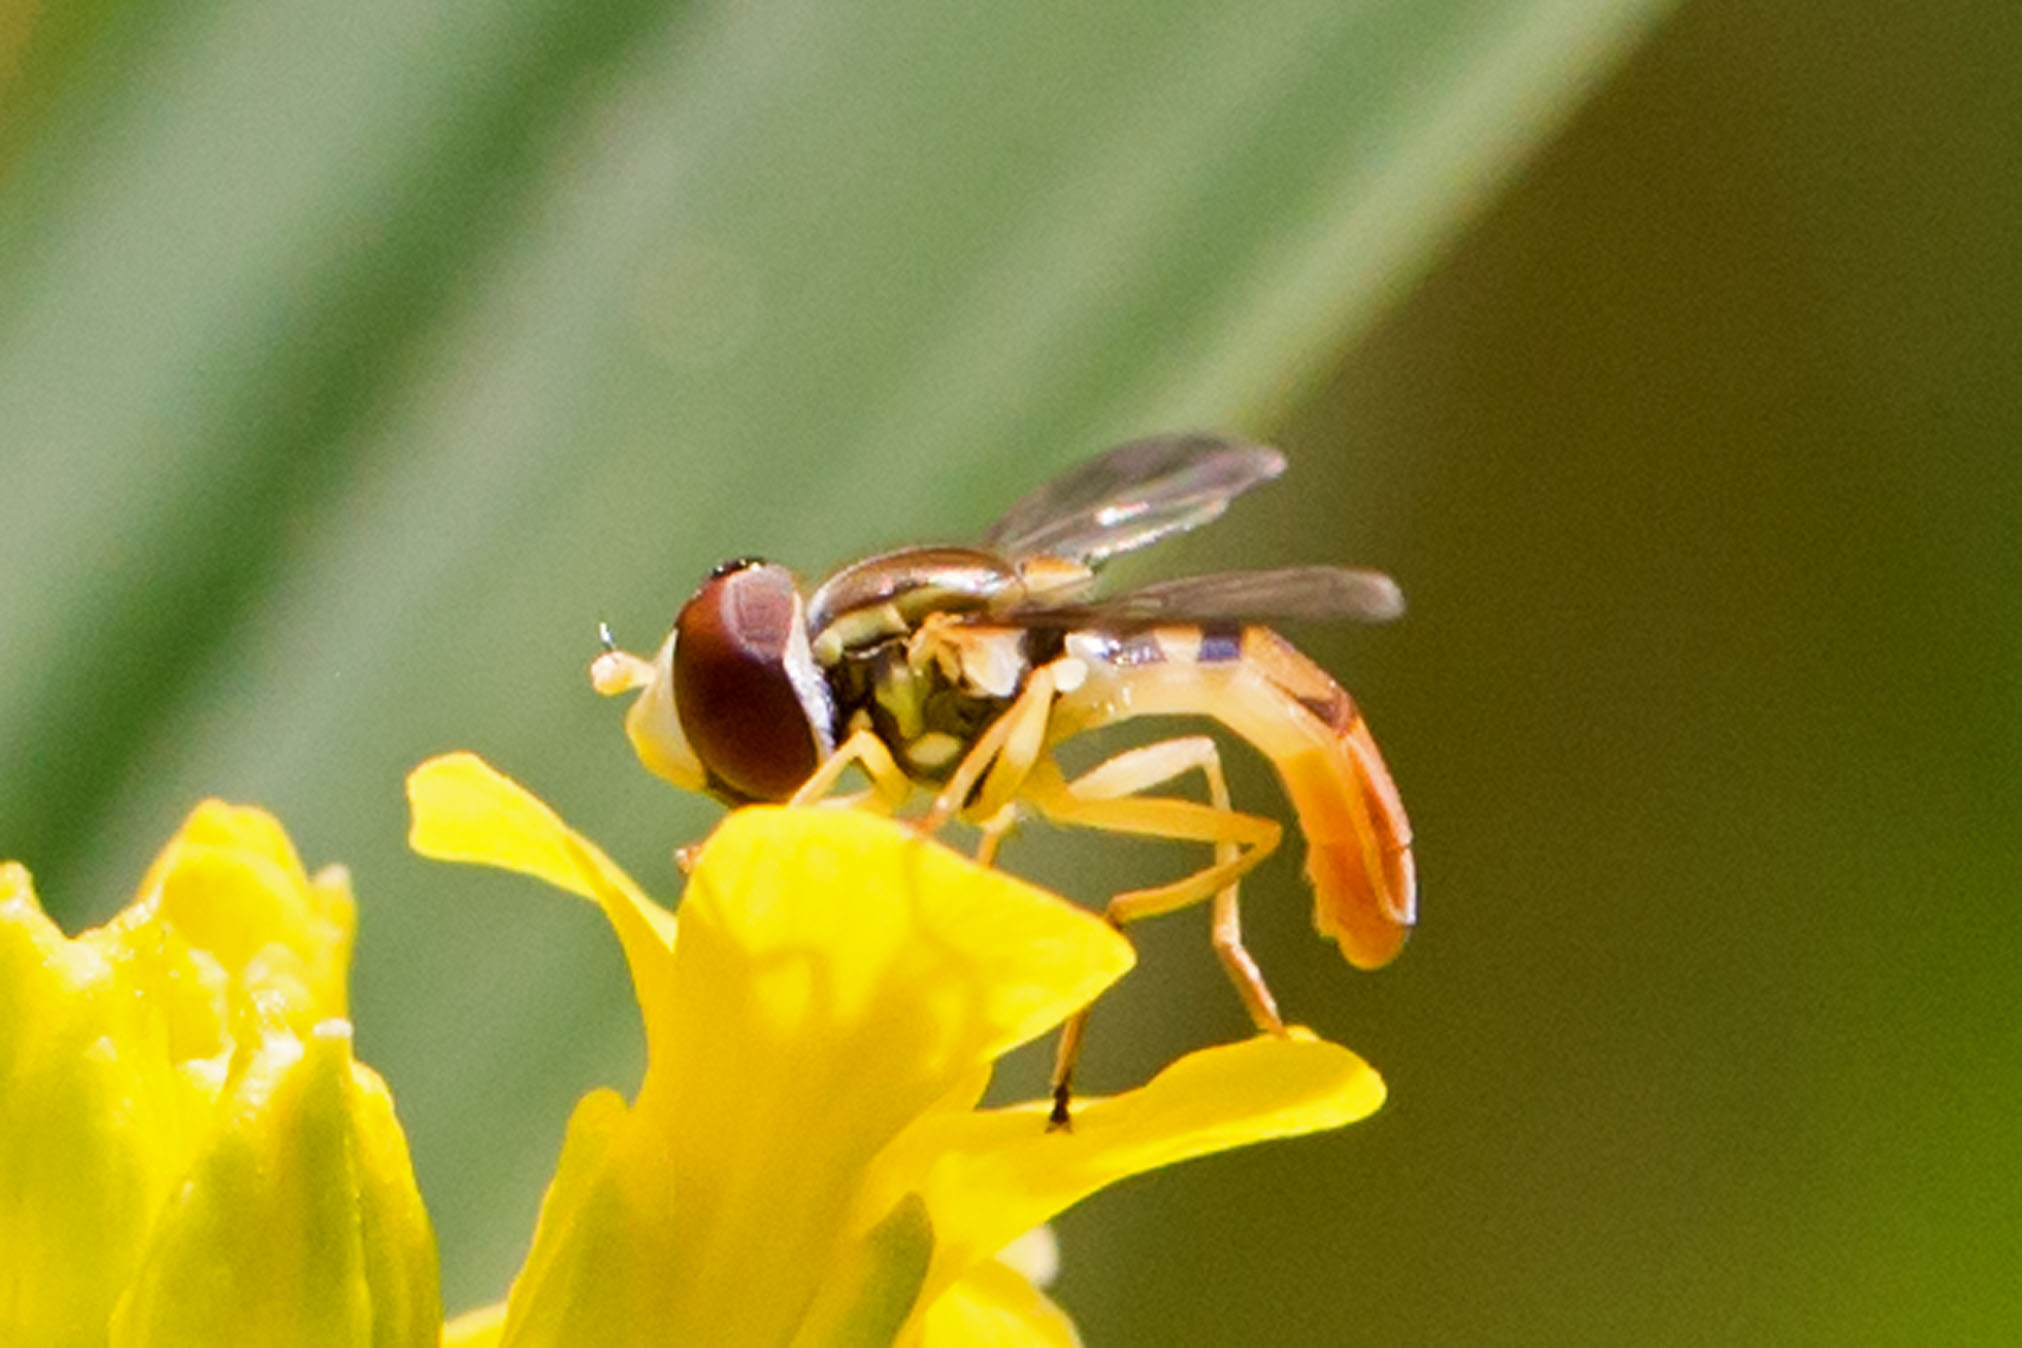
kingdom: Animalia
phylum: Arthropoda
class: Insecta
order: Diptera
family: Syrphidae
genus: Toxomerus
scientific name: Toxomerus marginatus
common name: Syrphid fly
